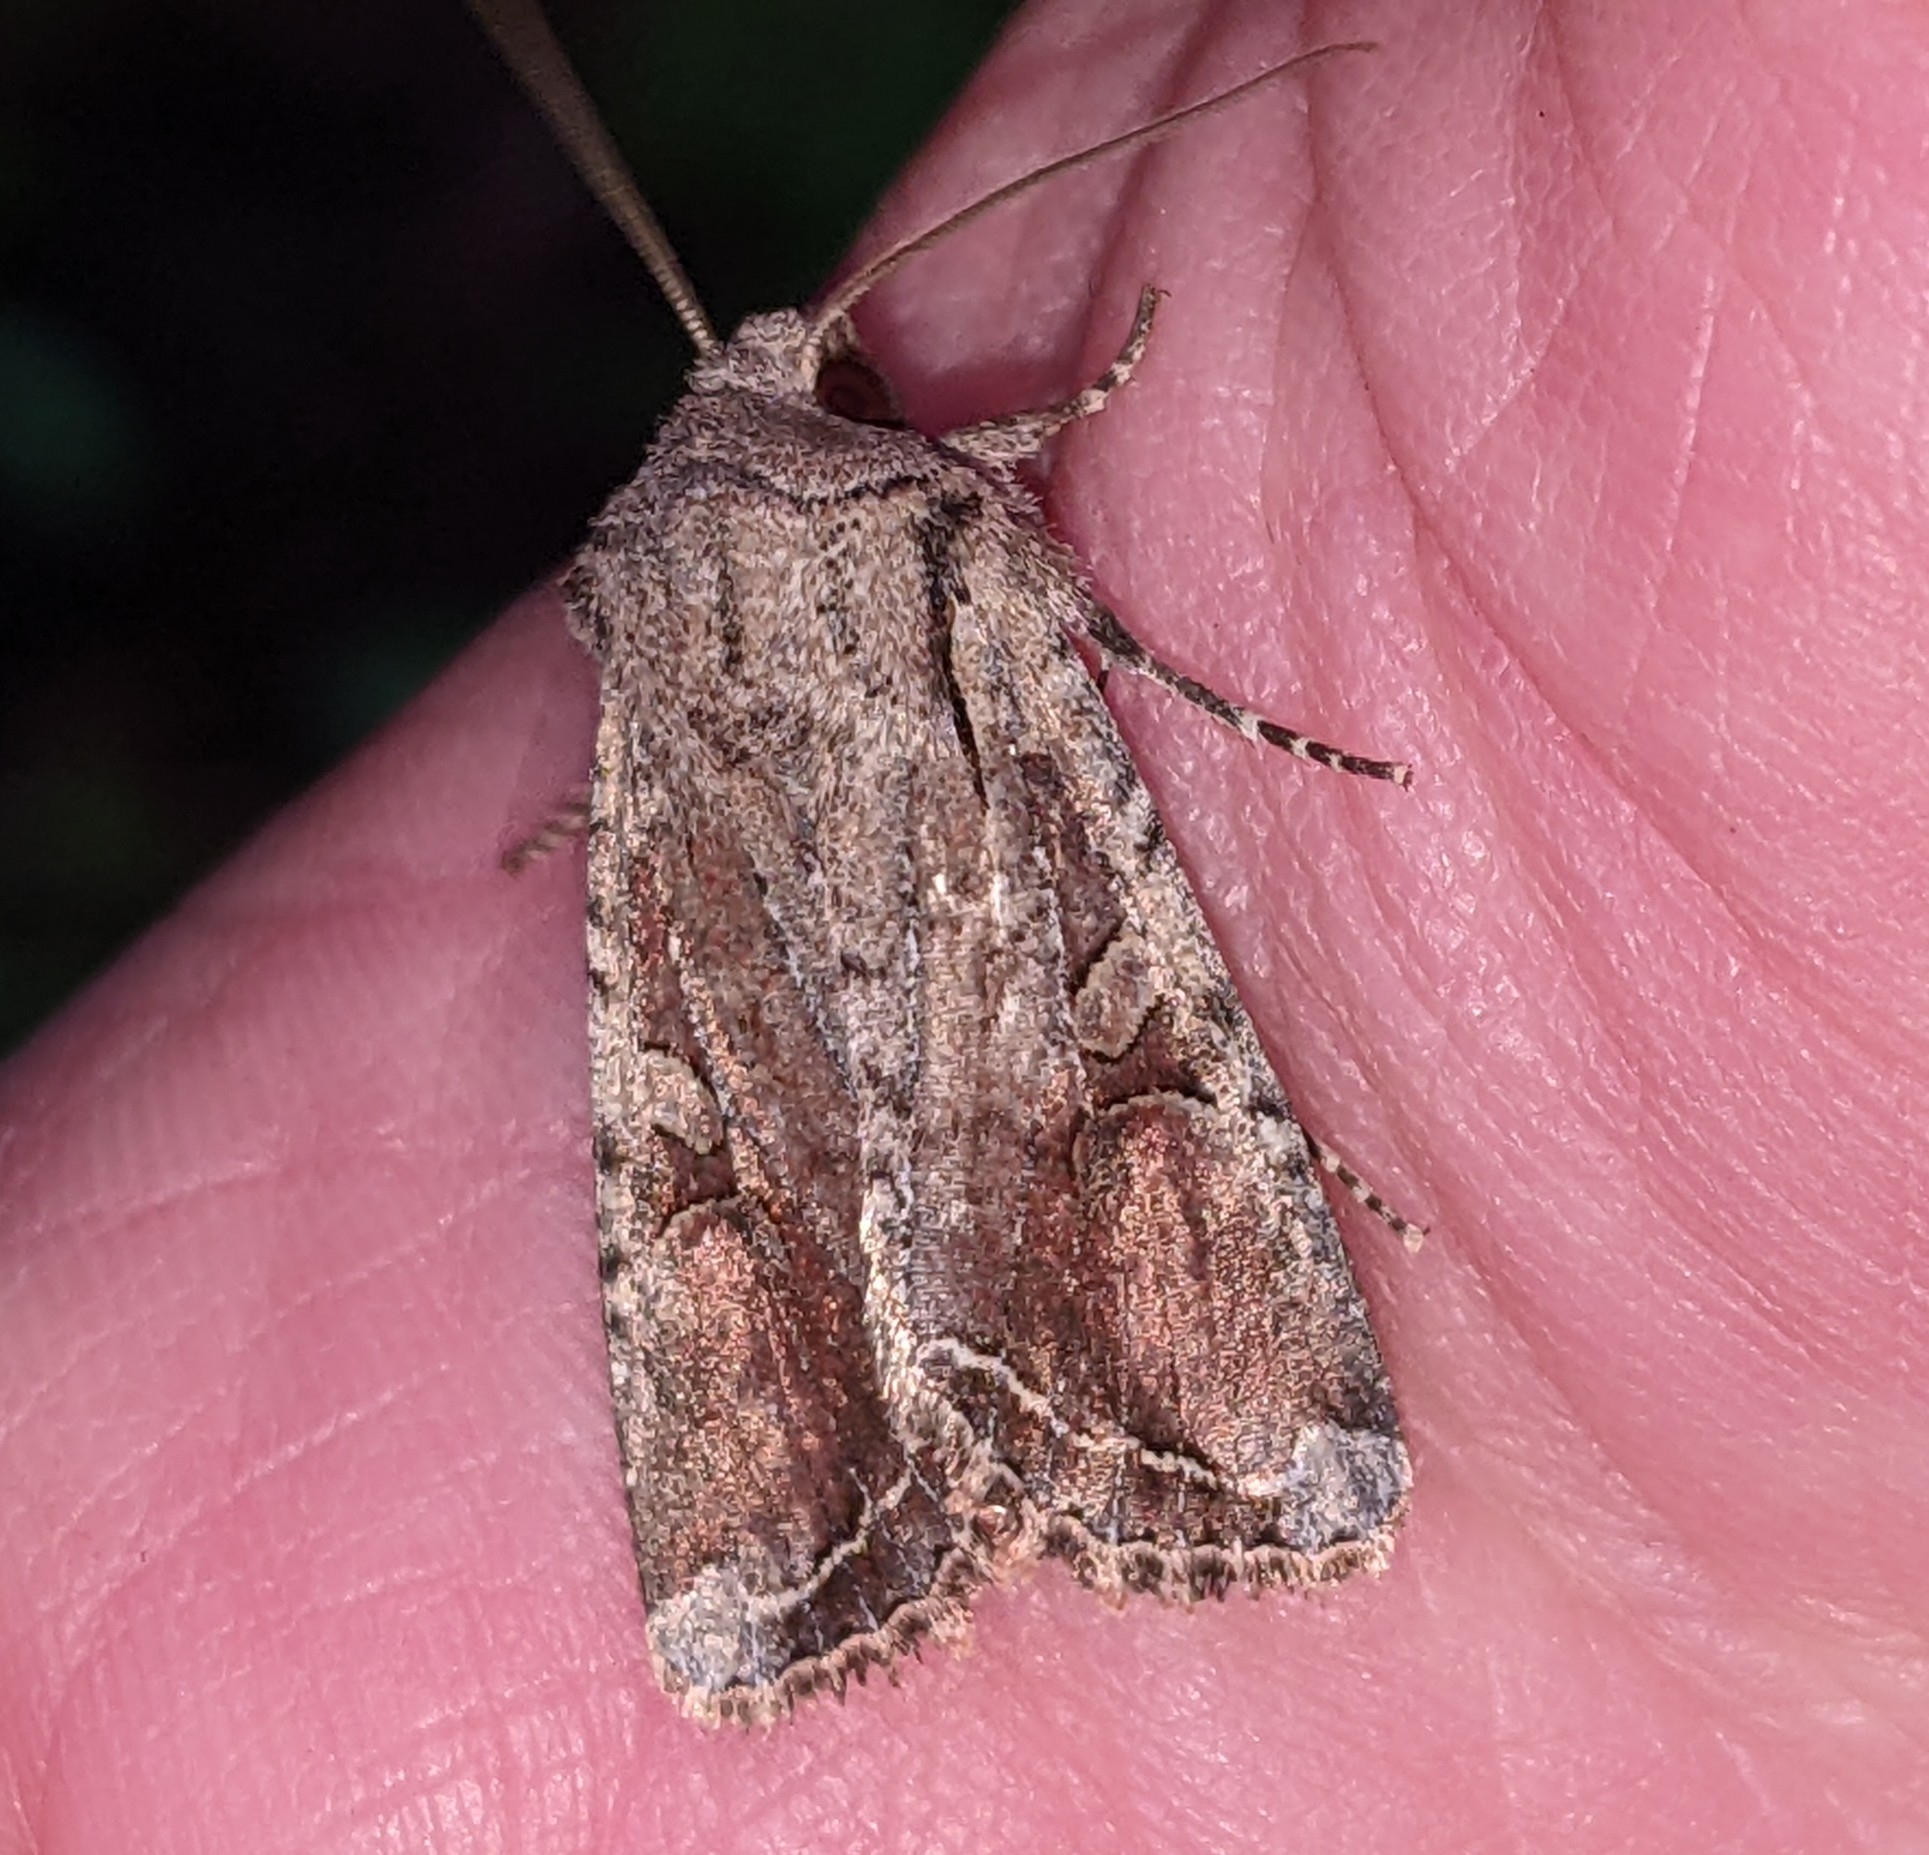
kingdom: Animalia
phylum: Arthropoda
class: Insecta
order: Lepidoptera
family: Noctuidae
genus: Egira
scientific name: Egira rubrica
